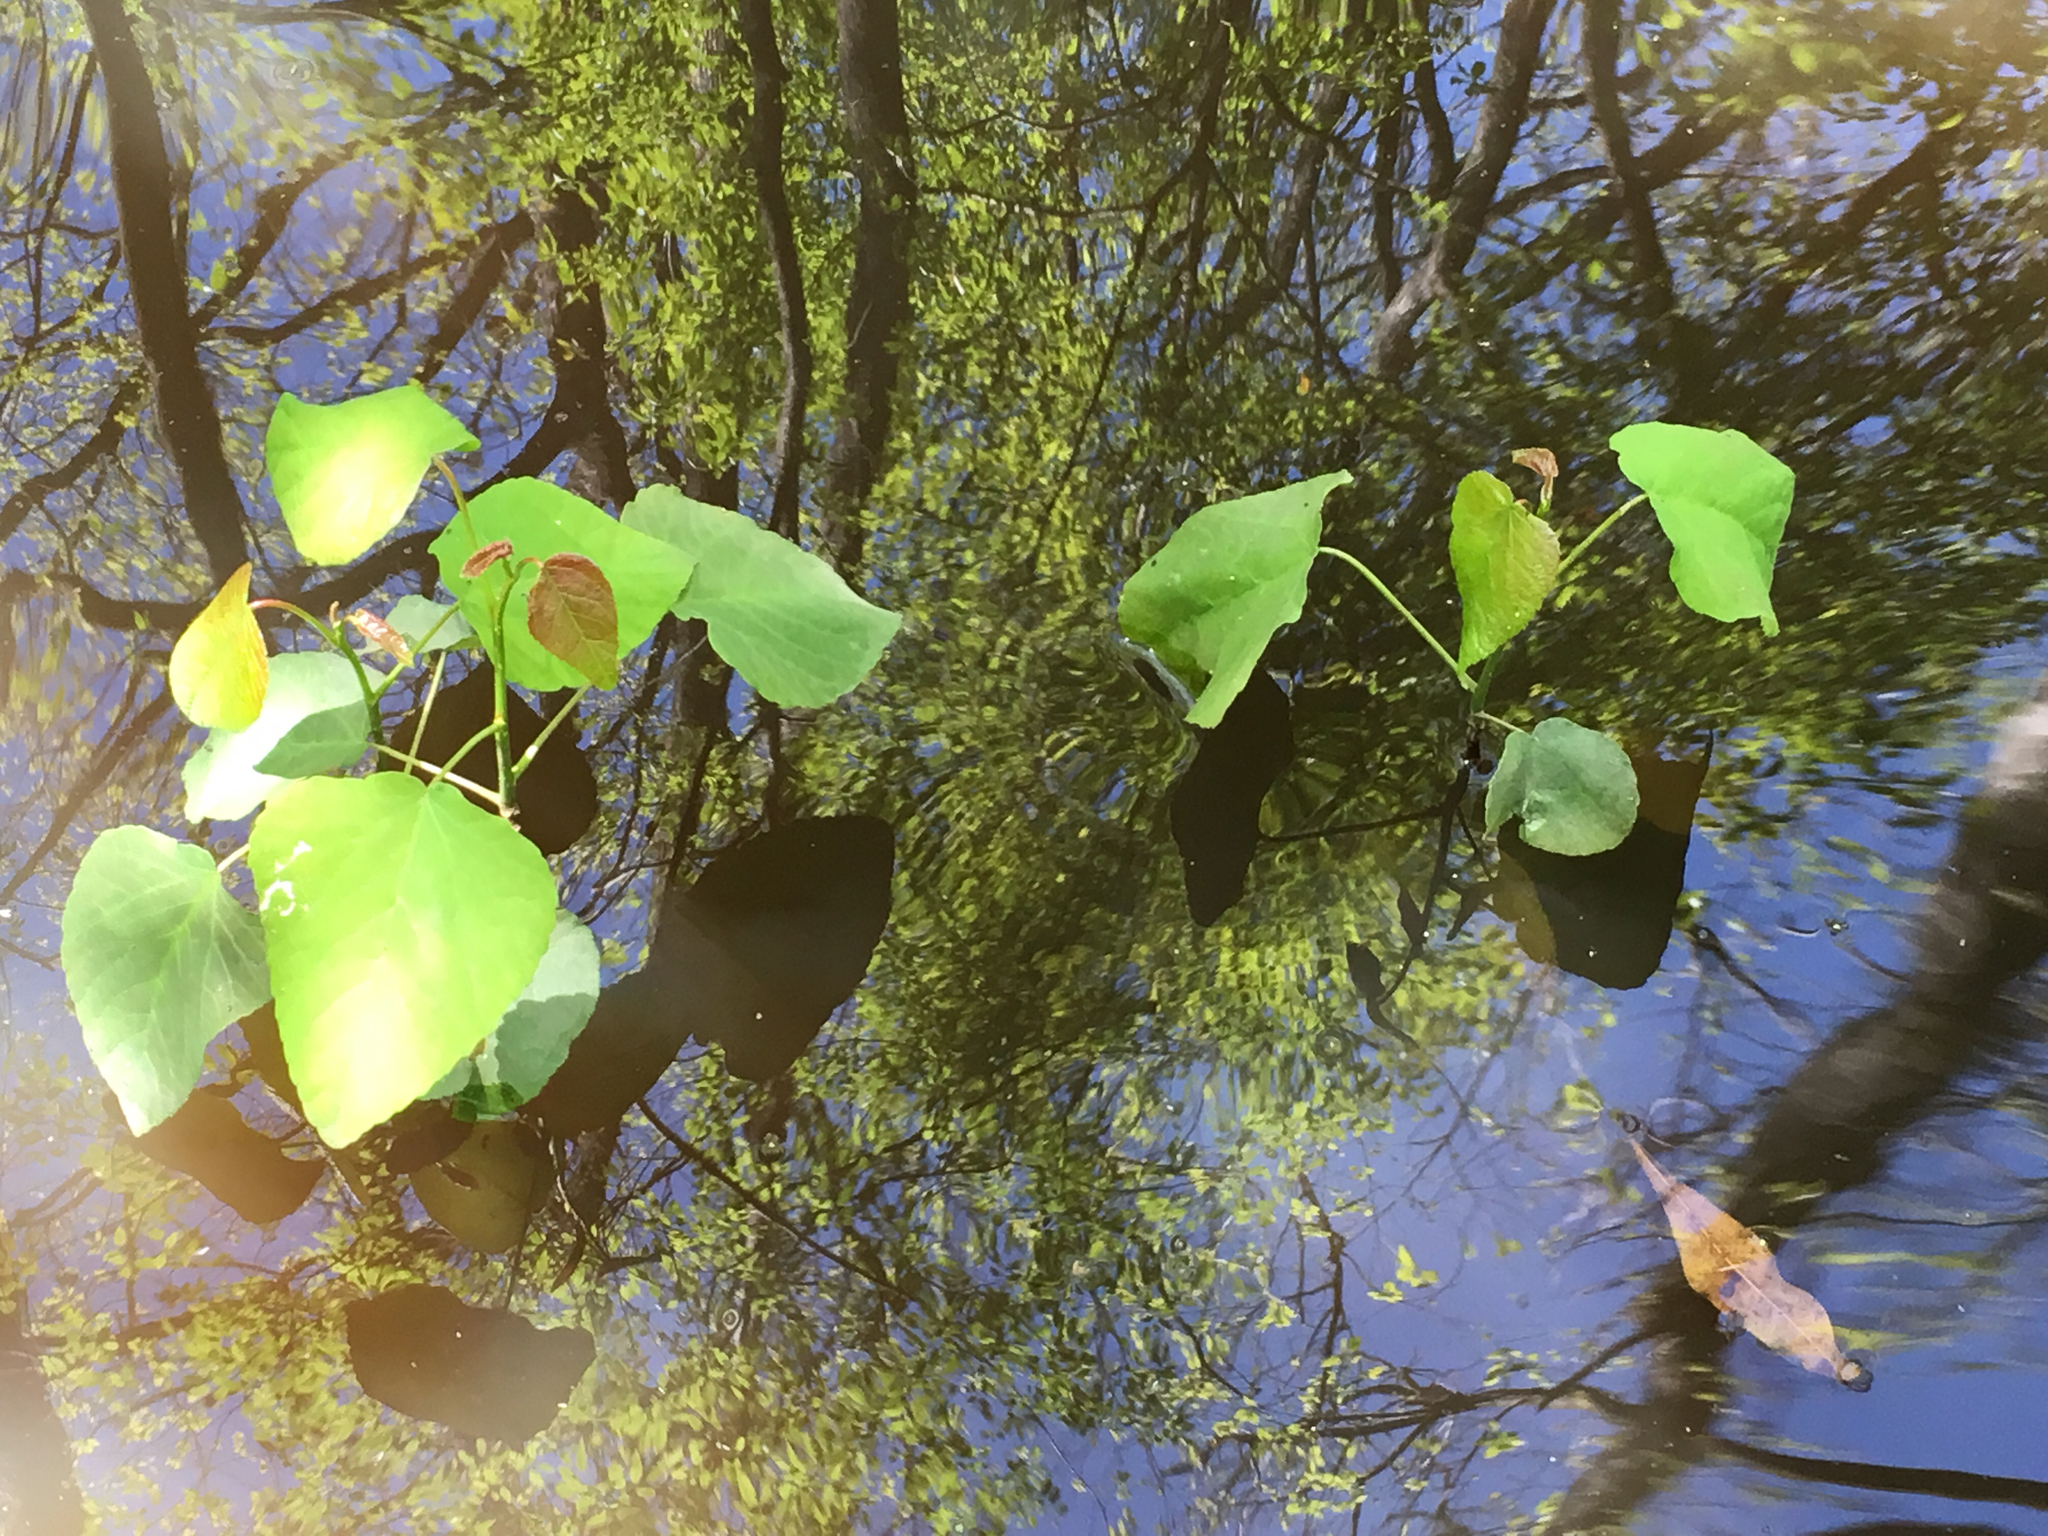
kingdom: Plantae
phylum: Tracheophyta
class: Magnoliopsida
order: Malpighiales
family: Salicaceae
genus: Populus
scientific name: Populus heterophylla
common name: Downy poplar
